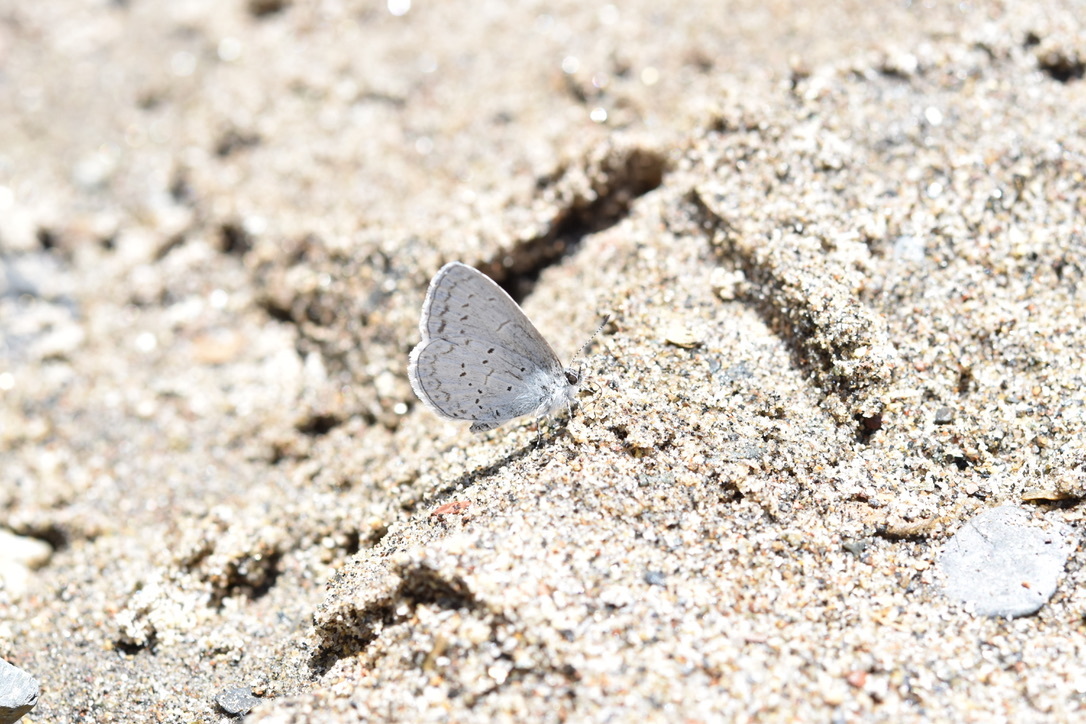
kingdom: Animalia
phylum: Arthropoda
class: Insecta
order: Lepidoptera
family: Lycaenidae
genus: Celastrina
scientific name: Celastrina ladon
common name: Spring azure
